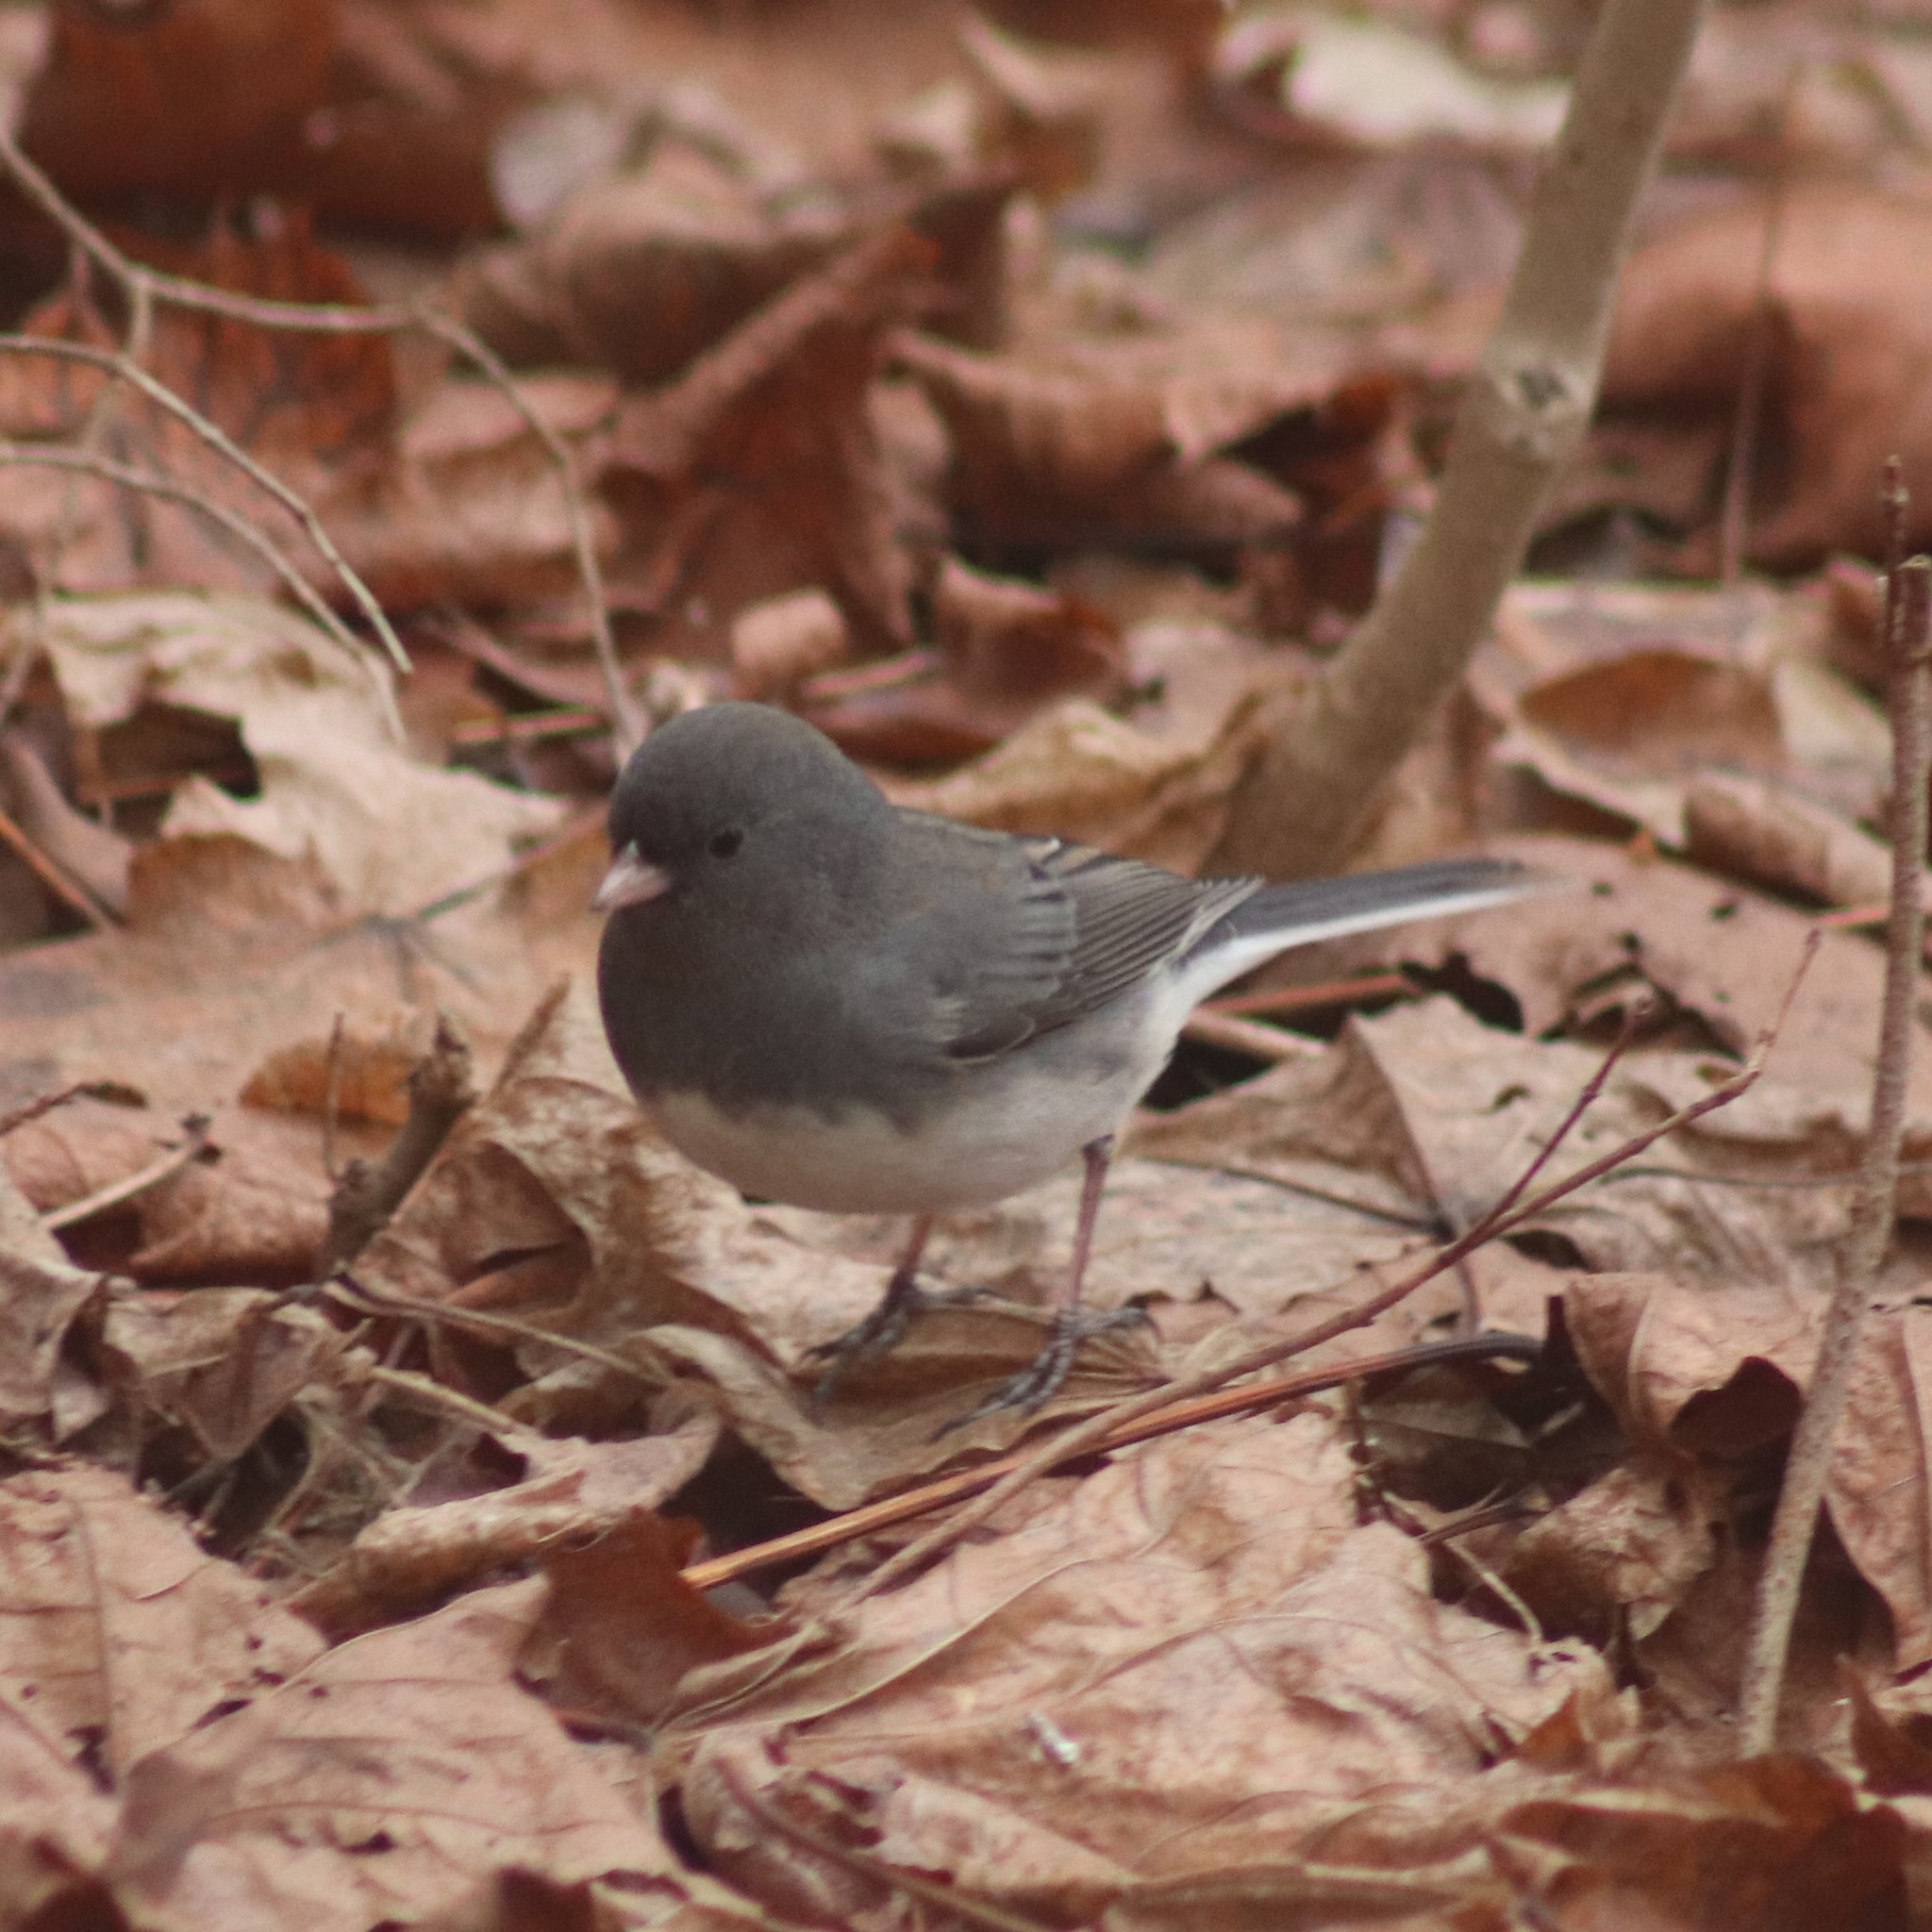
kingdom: Animalia
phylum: Chordata
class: Aves
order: Passeriformes
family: Passerellidae
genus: Junco
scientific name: Junco hyemalis
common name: Dark-eyed junco
